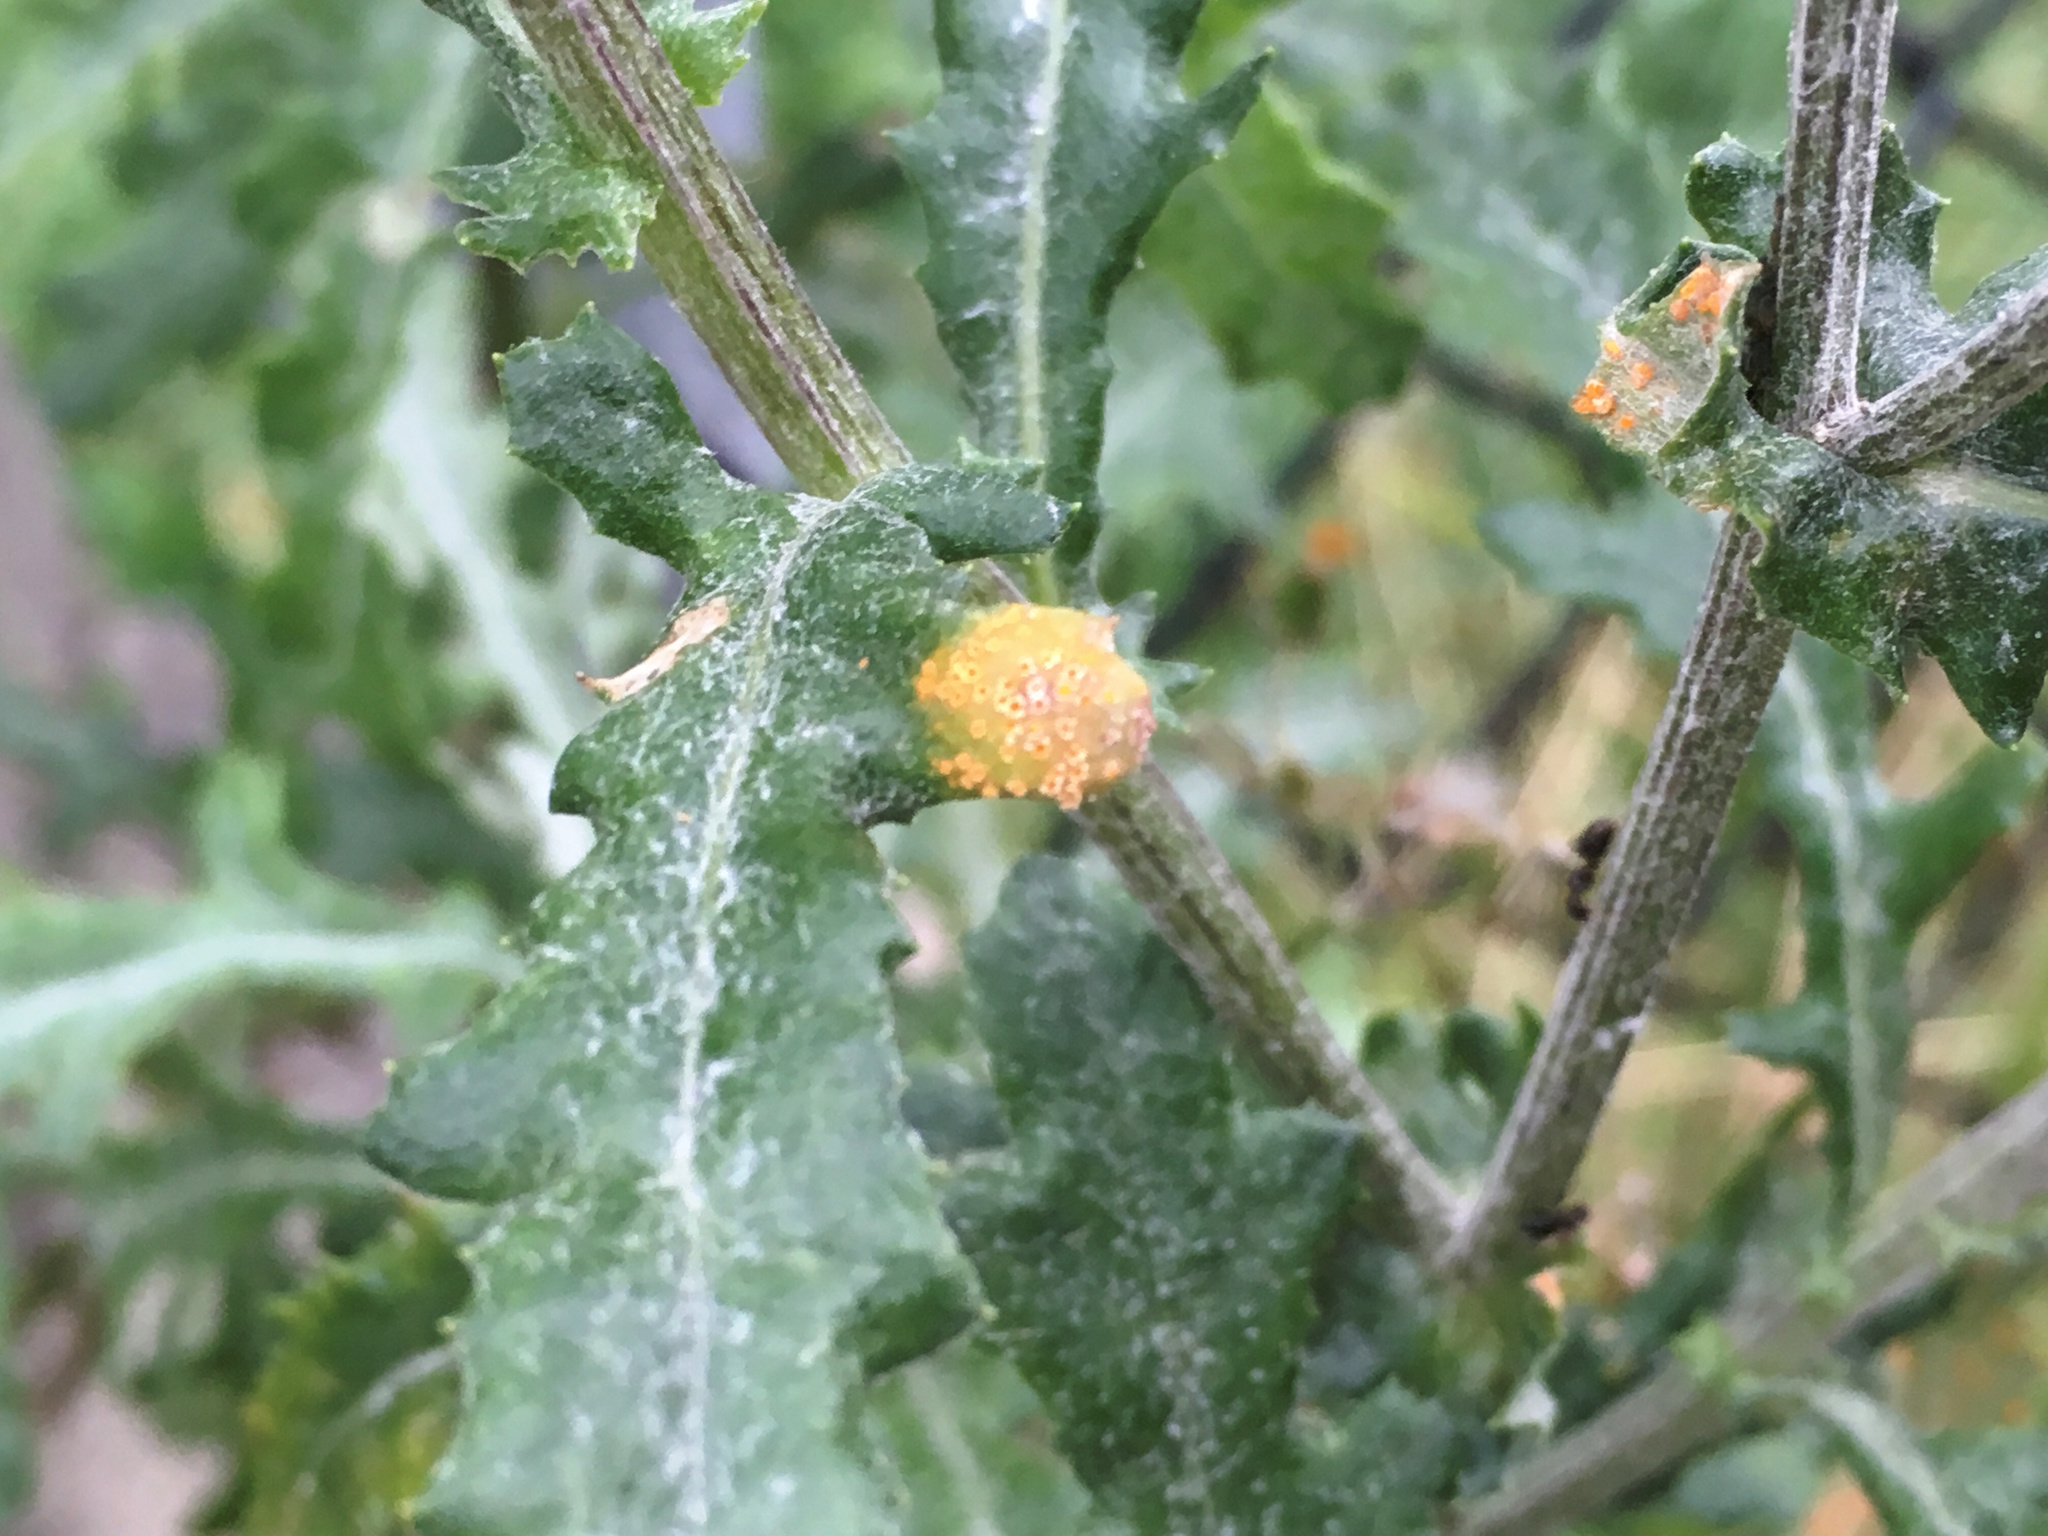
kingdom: Fungi
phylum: Basidiomycota
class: Pucciniomycetes
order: Pucciniales
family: Pucciniaceae
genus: Puccinia
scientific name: Puccinia lagenophorae
